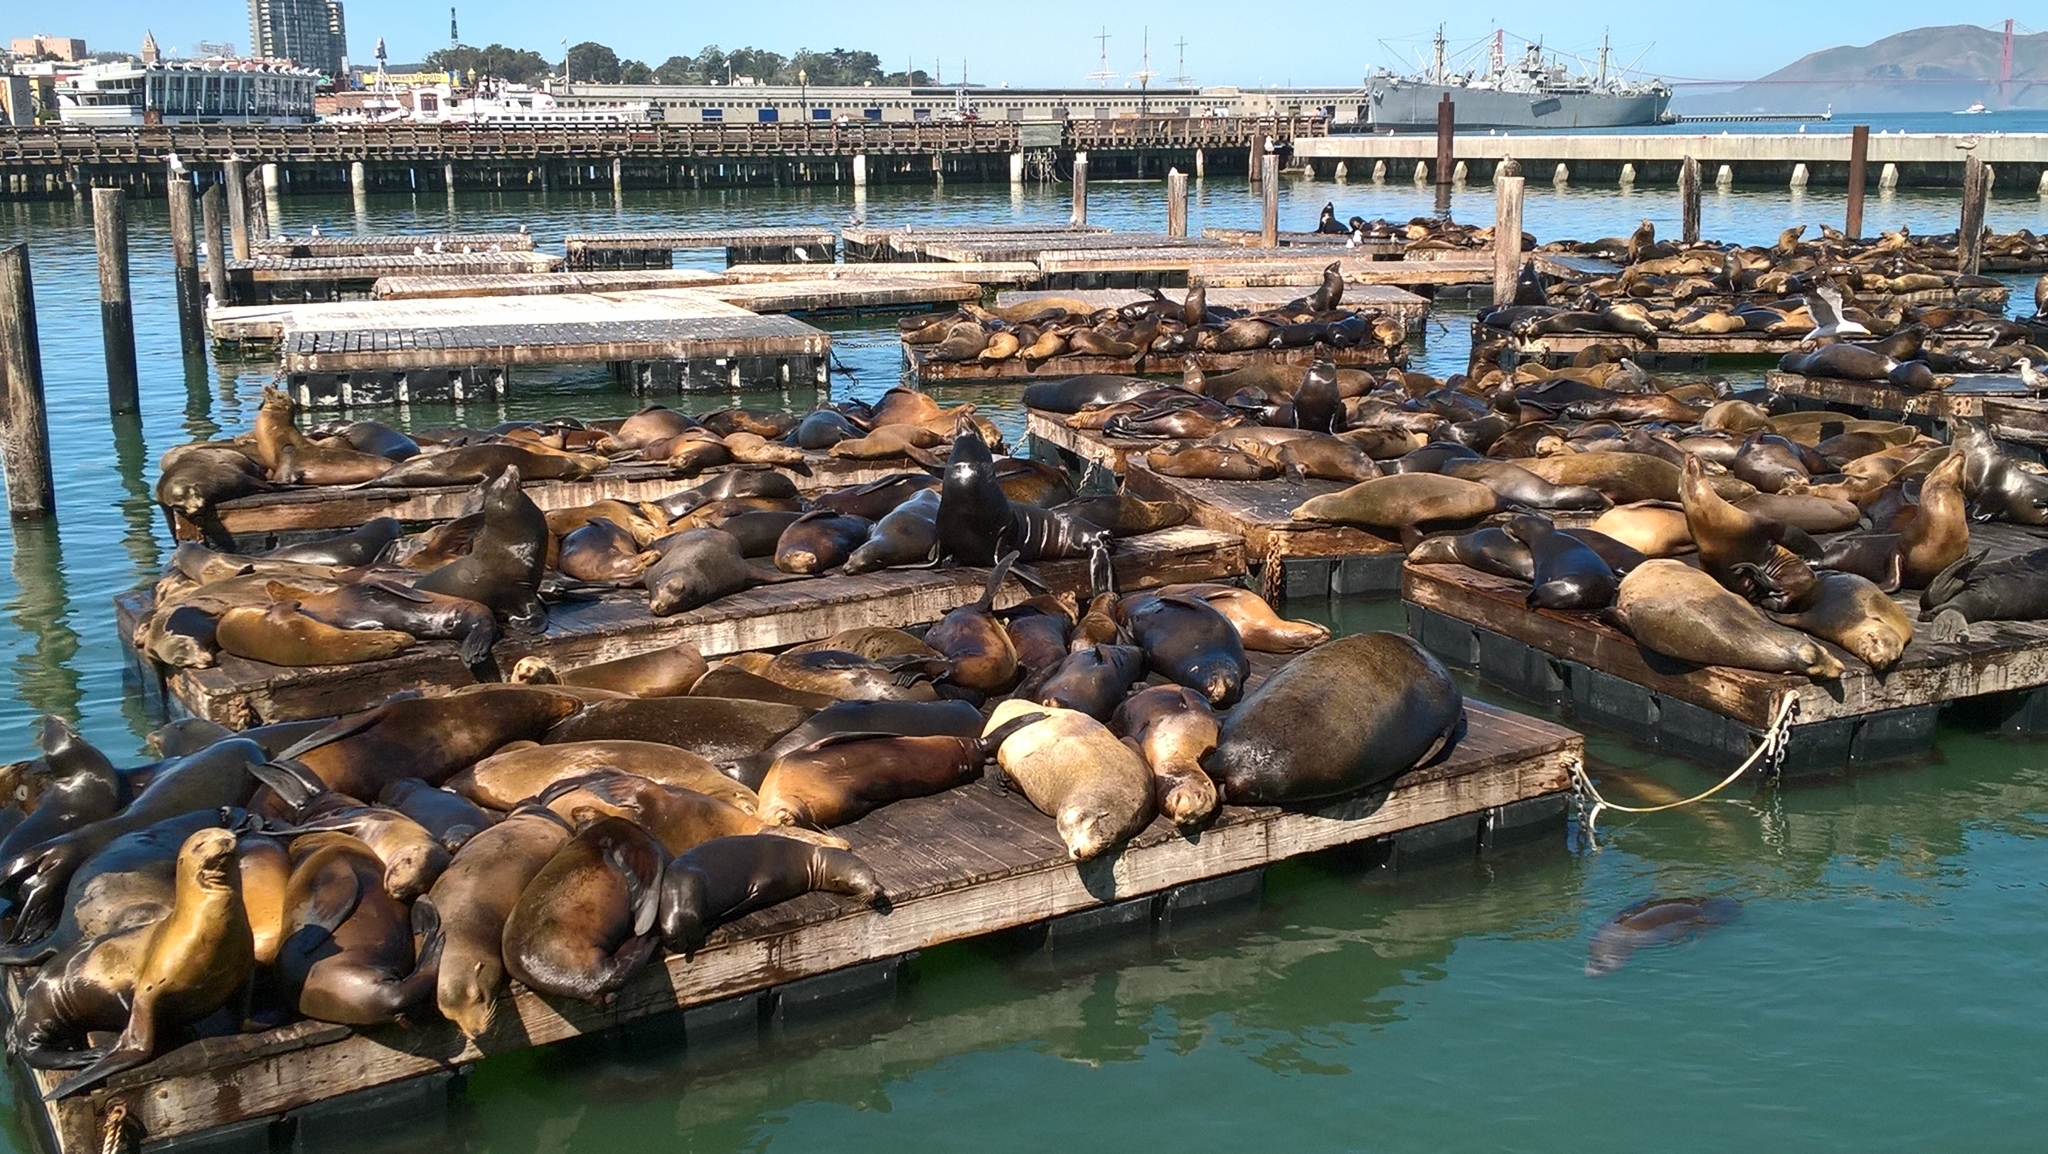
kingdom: Animalia
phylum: Chordata
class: Mammalia
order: Carnivora
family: Otariidae
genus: Zalophus
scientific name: Zalophus californianus
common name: California sea lion
